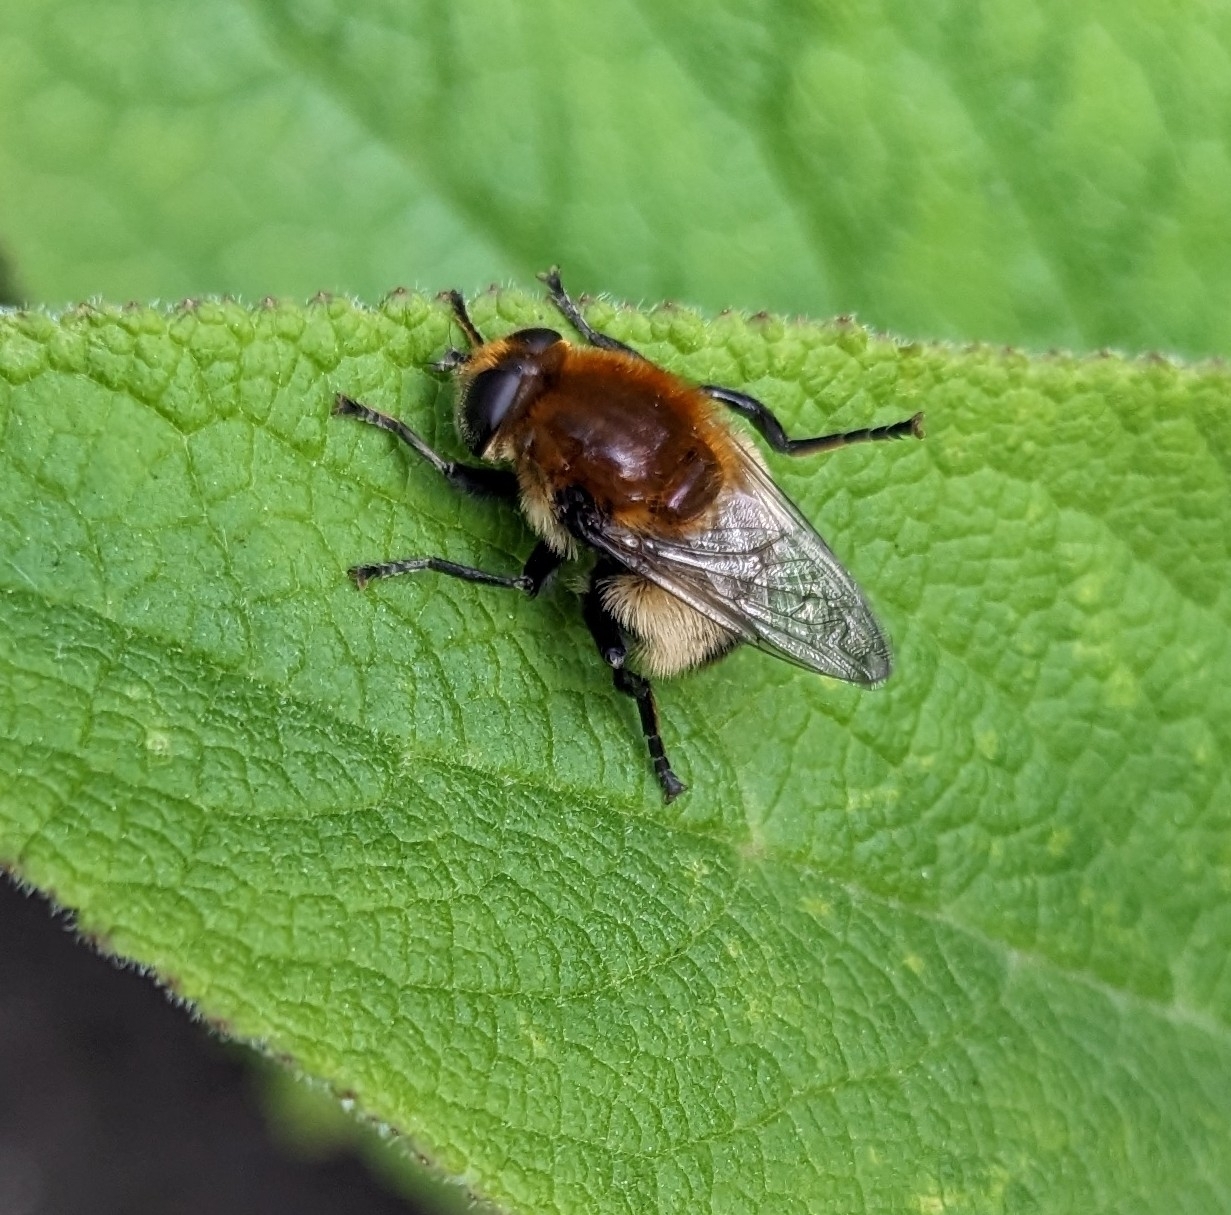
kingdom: Animalia
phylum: Arthropoda
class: Insecta
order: Diptera
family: Syrphidae
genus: Merodon
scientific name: Merodon equestris
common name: Greater bulb-fly
